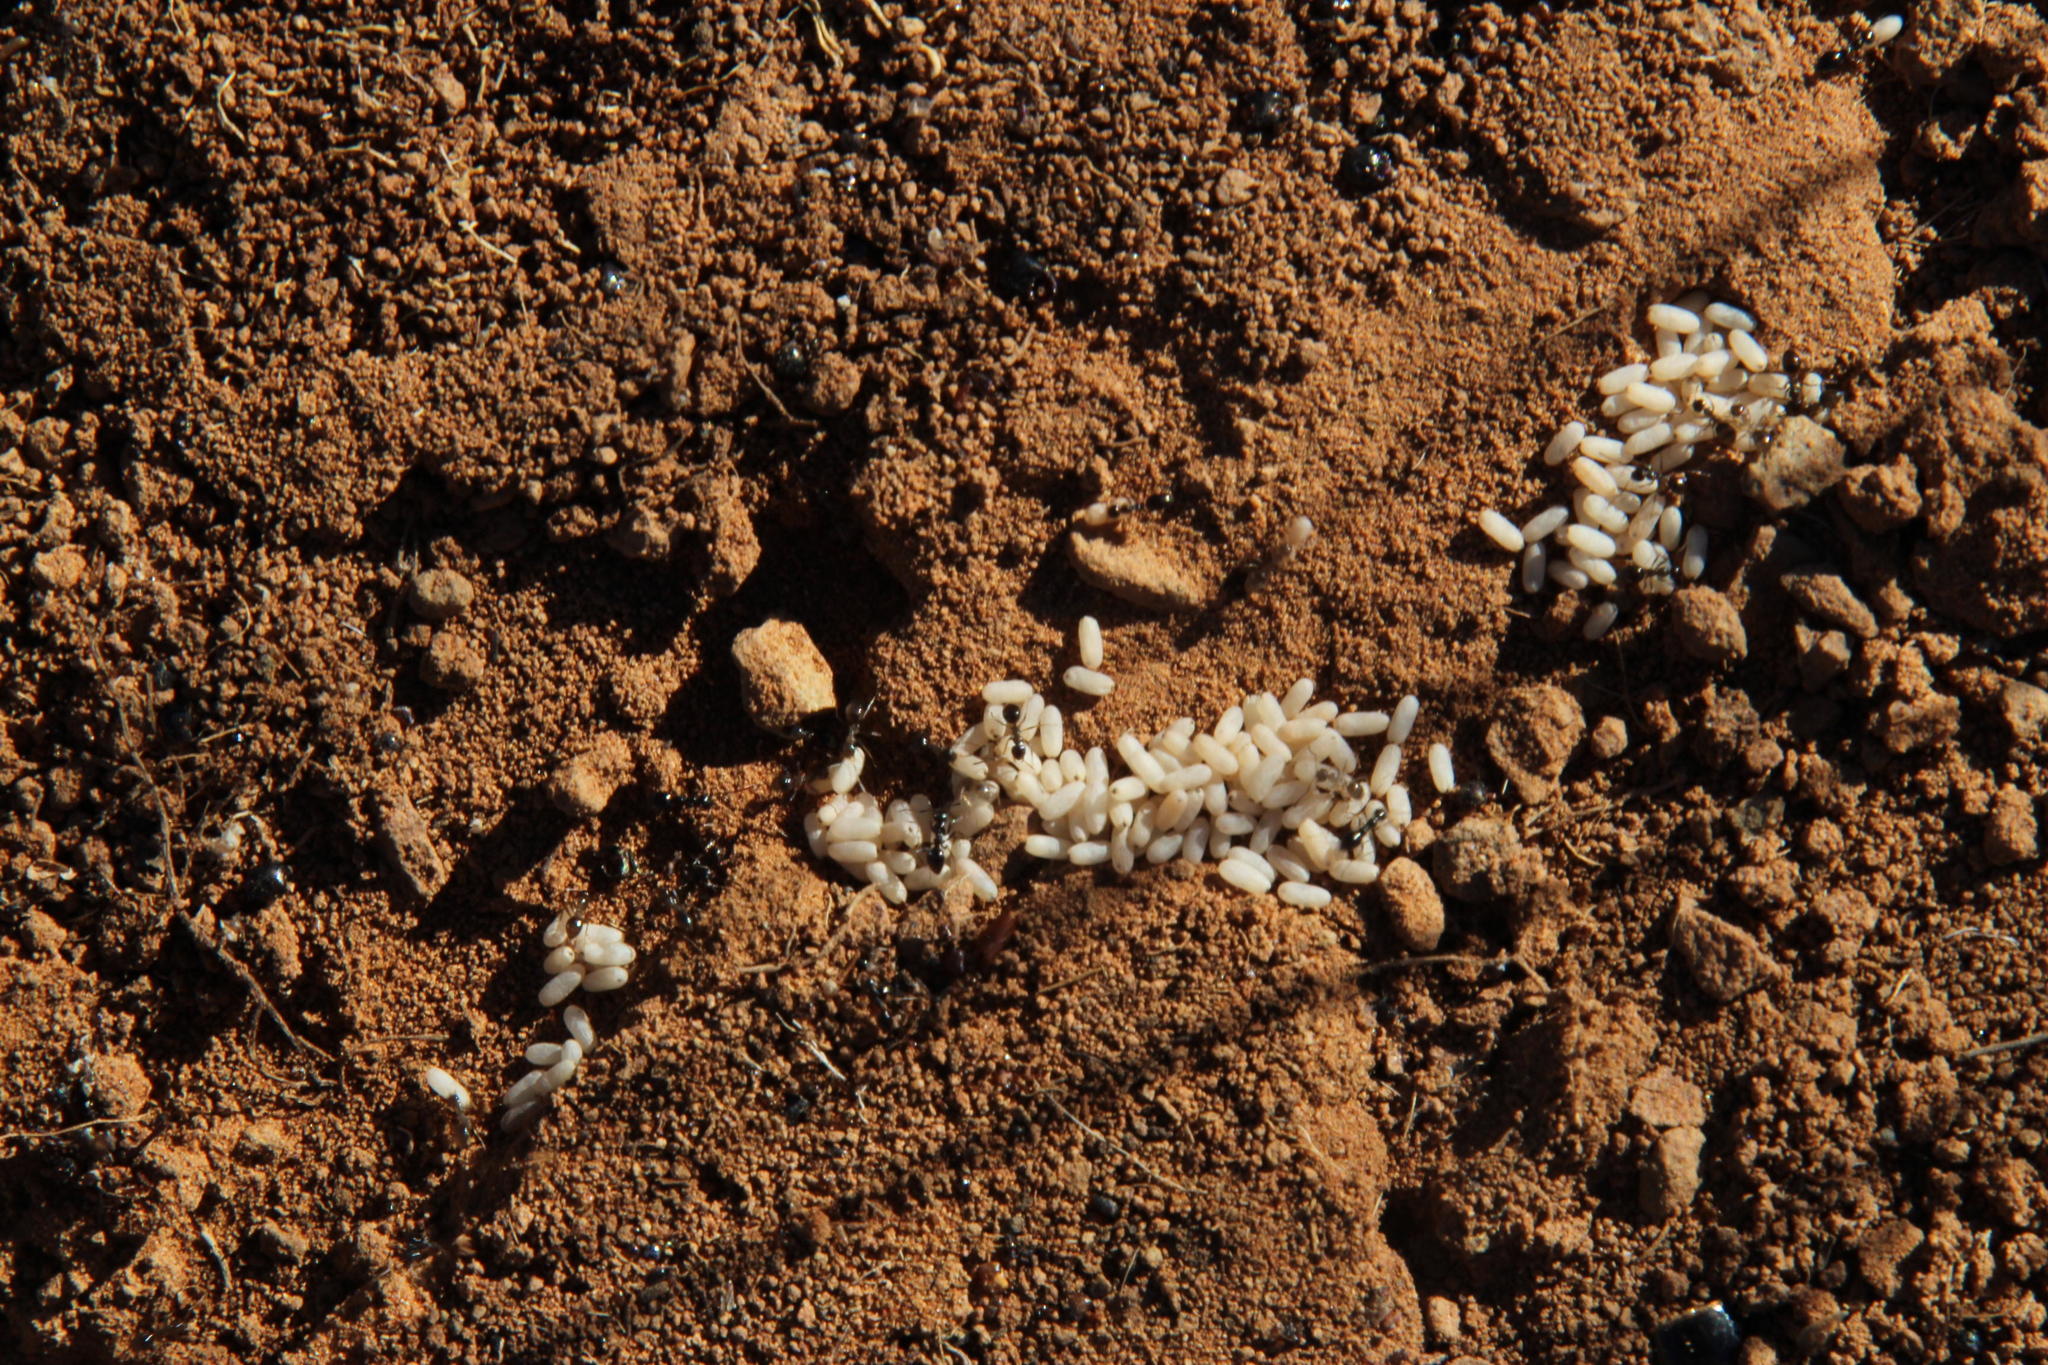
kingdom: Animalia
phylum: Arthropoda
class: Insecta
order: Hymenoptera
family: Formicidae
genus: Lepisiota
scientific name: Lepisiota capensis
